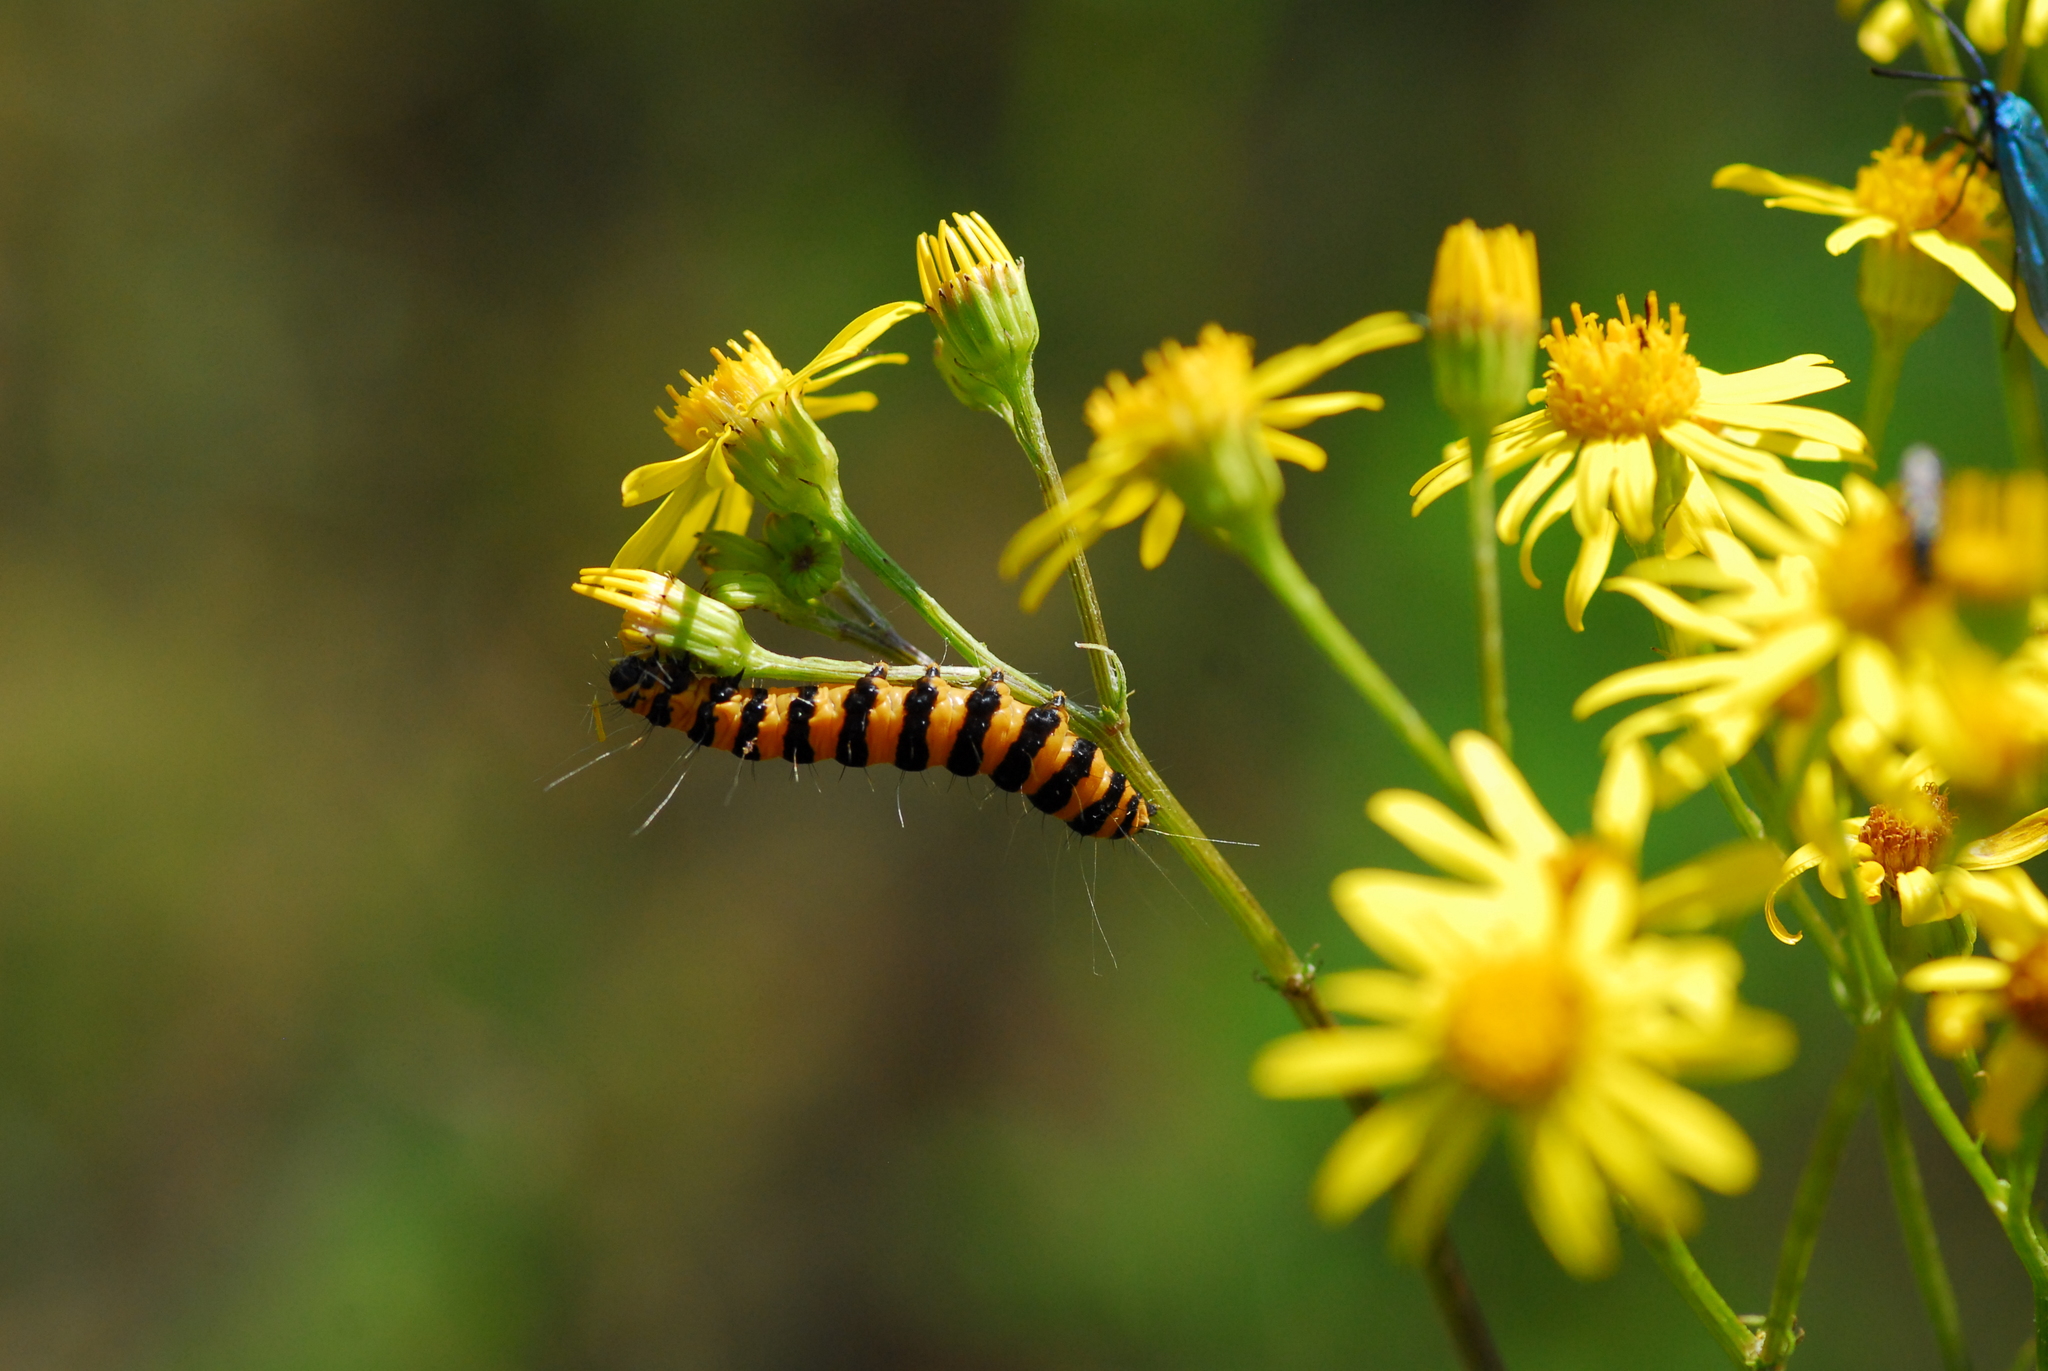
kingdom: Animalia
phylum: Arthropoda
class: Insecta
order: Lepidoptera
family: Erebidae
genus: Tyria
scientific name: Tyria jacobaeae
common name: Cinnabar
